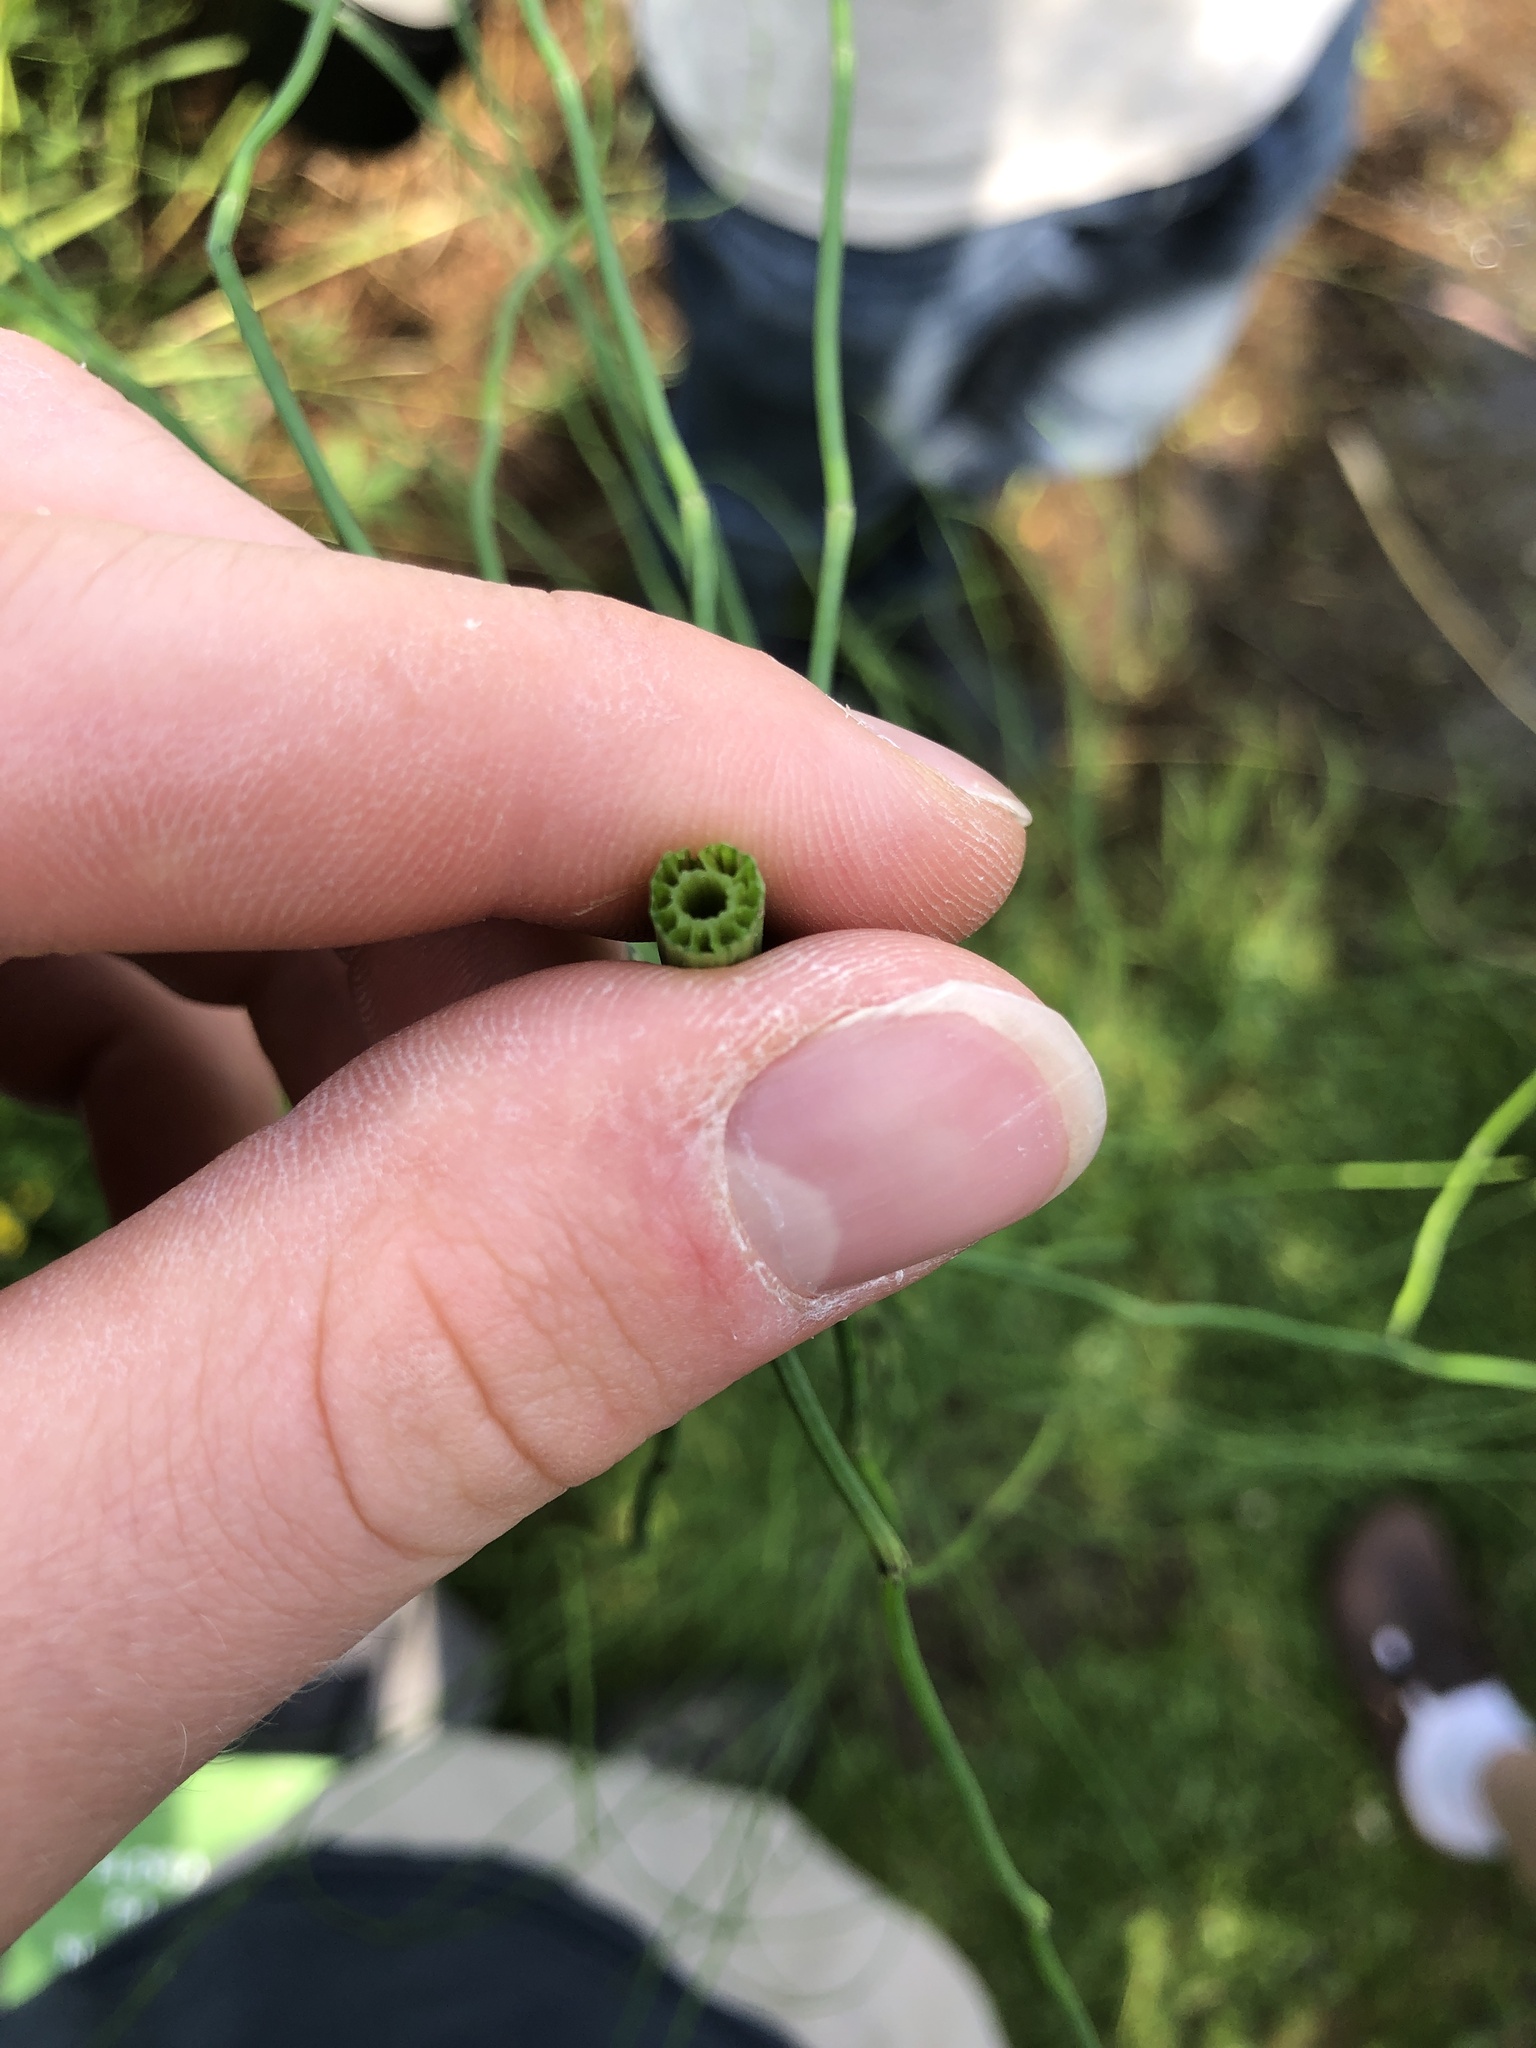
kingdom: Plantae
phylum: Tracheophyta
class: Polypodiopsida
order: Equisetales
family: Equisetaceae
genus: Equisetum
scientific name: Equisetum palustre
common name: Marsh horsetail
